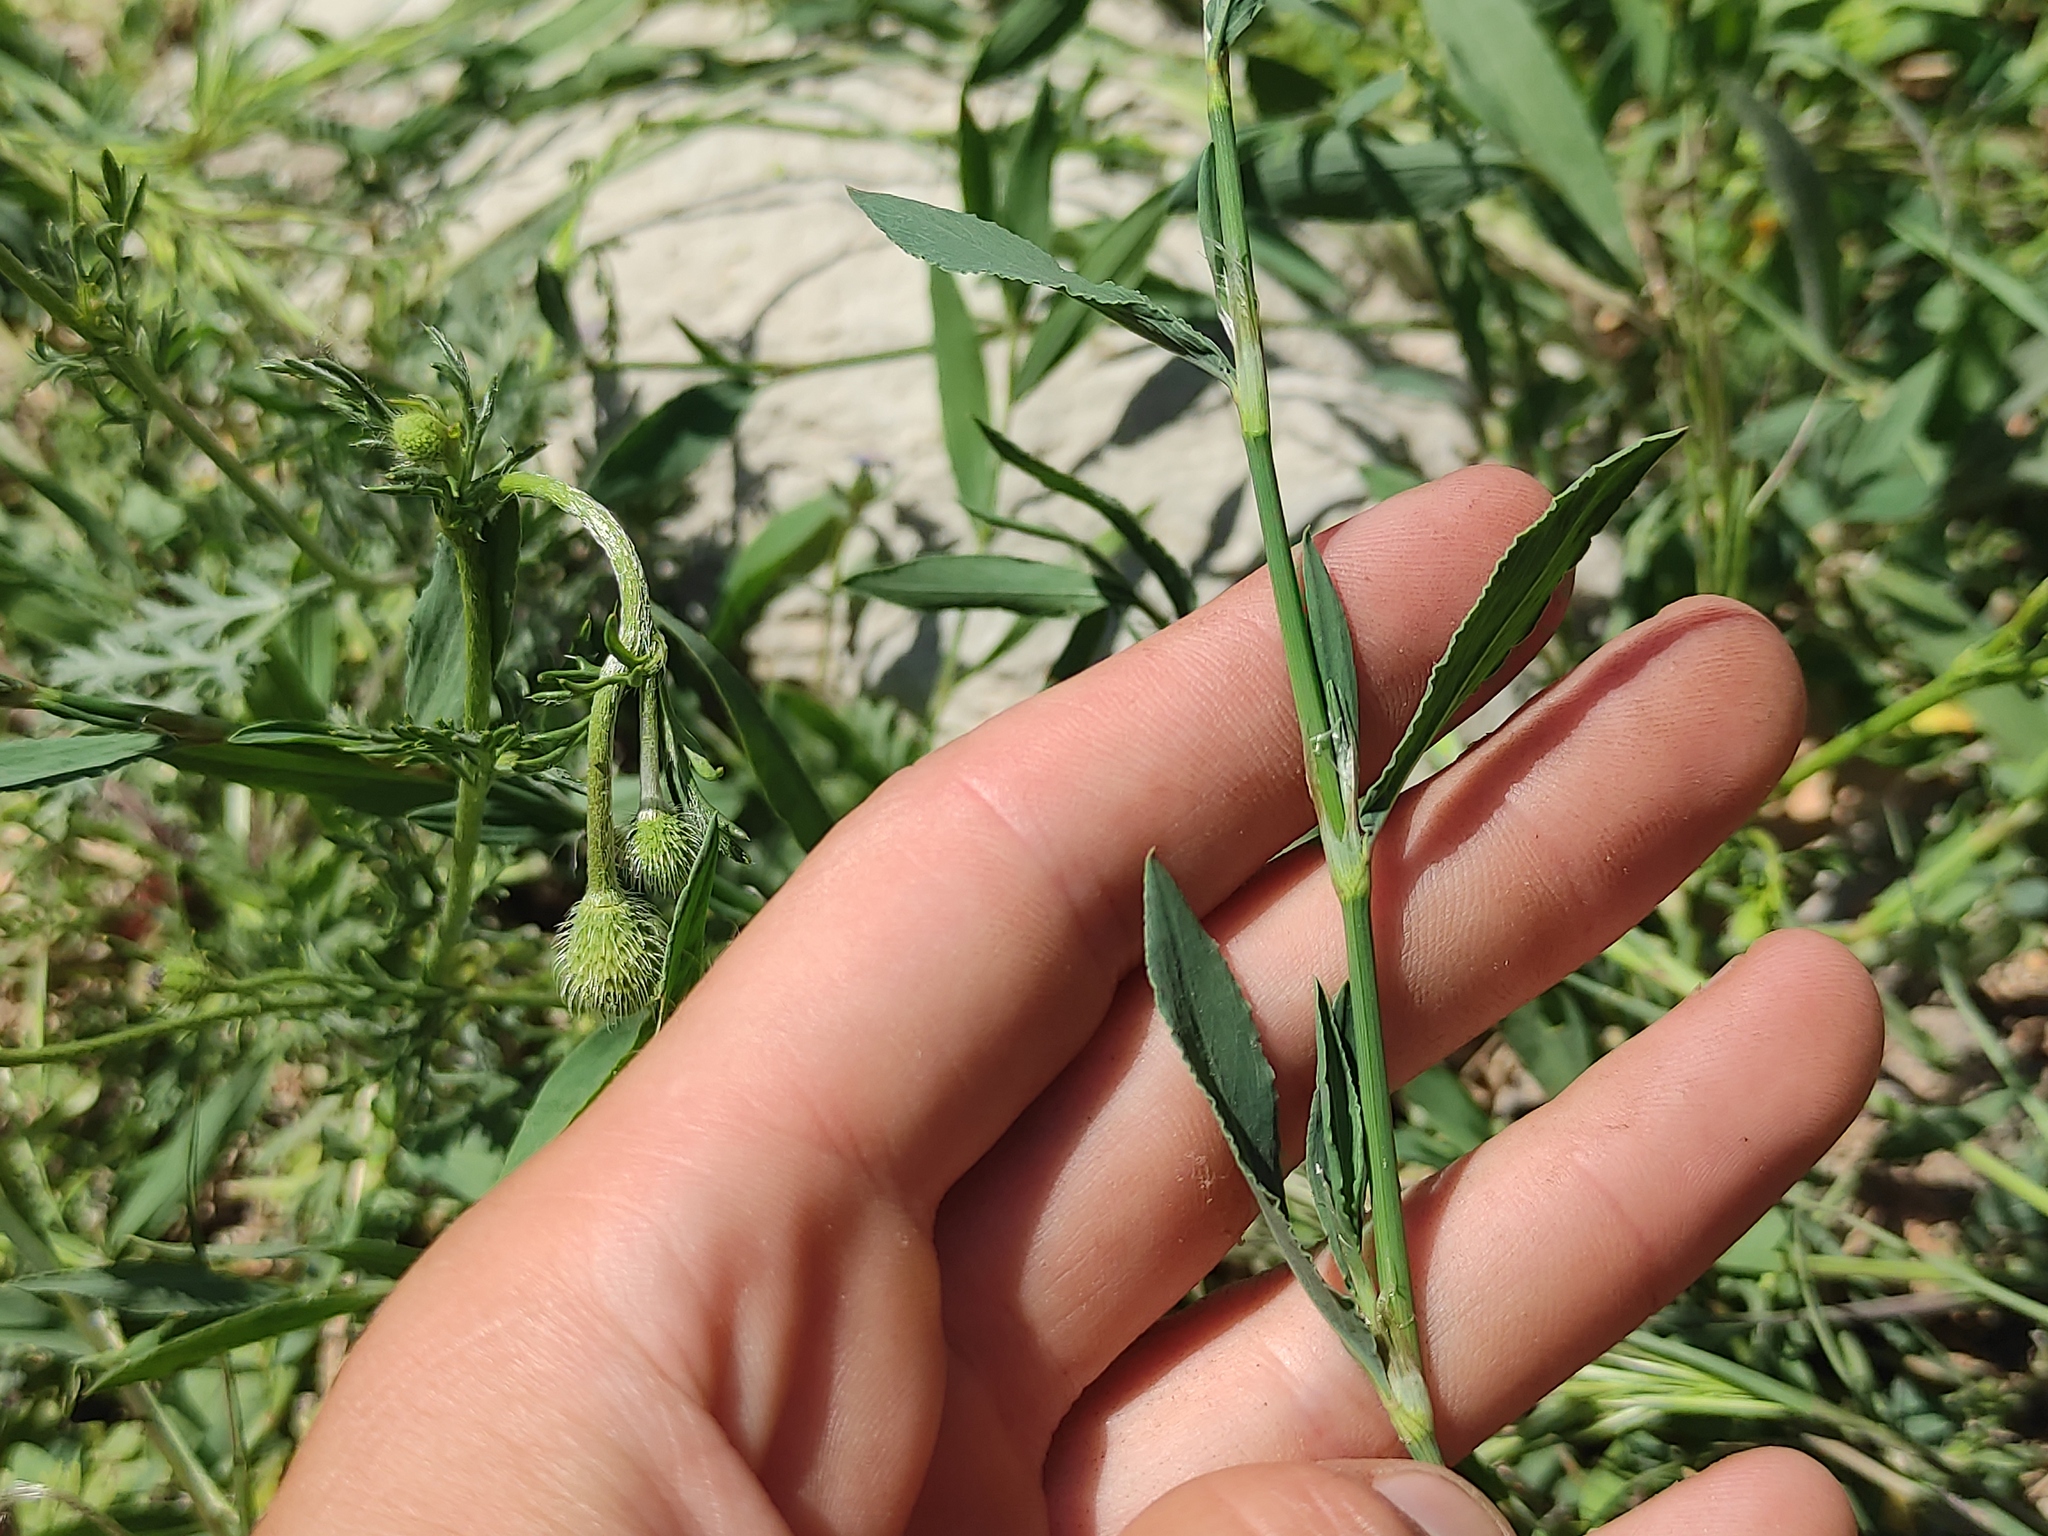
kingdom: Plantae
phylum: Tracheophyta
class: Magnoliopsida
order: Caryophyllales
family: Polygonaceae
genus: Polygonum
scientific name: Polygonum aviculare
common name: Prostrate knotweed
